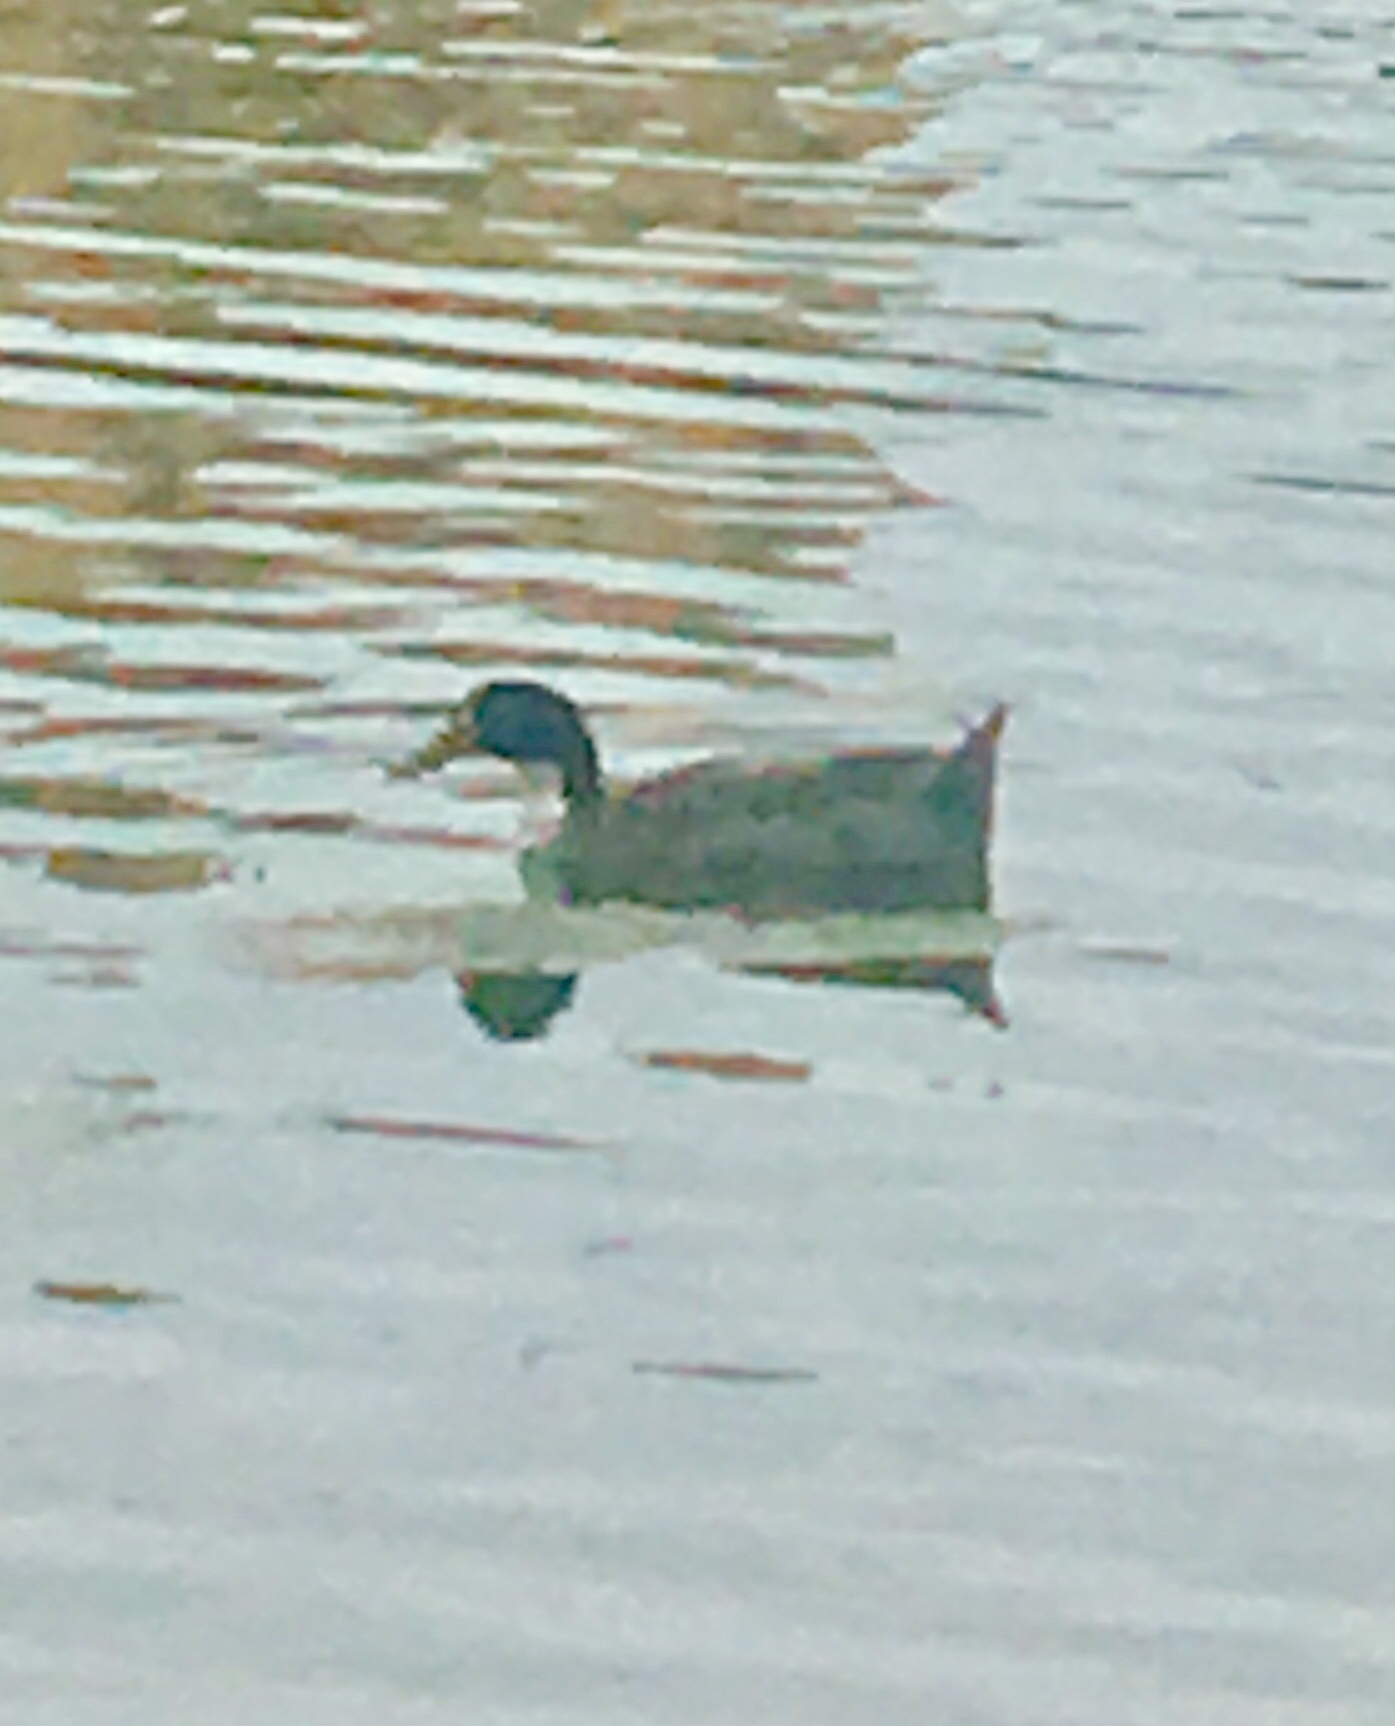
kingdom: Animalia
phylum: Chordata
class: Aves
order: Anseriformes
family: Anatidae
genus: Anas
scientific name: Anas platyrhynchos
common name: Mallard
